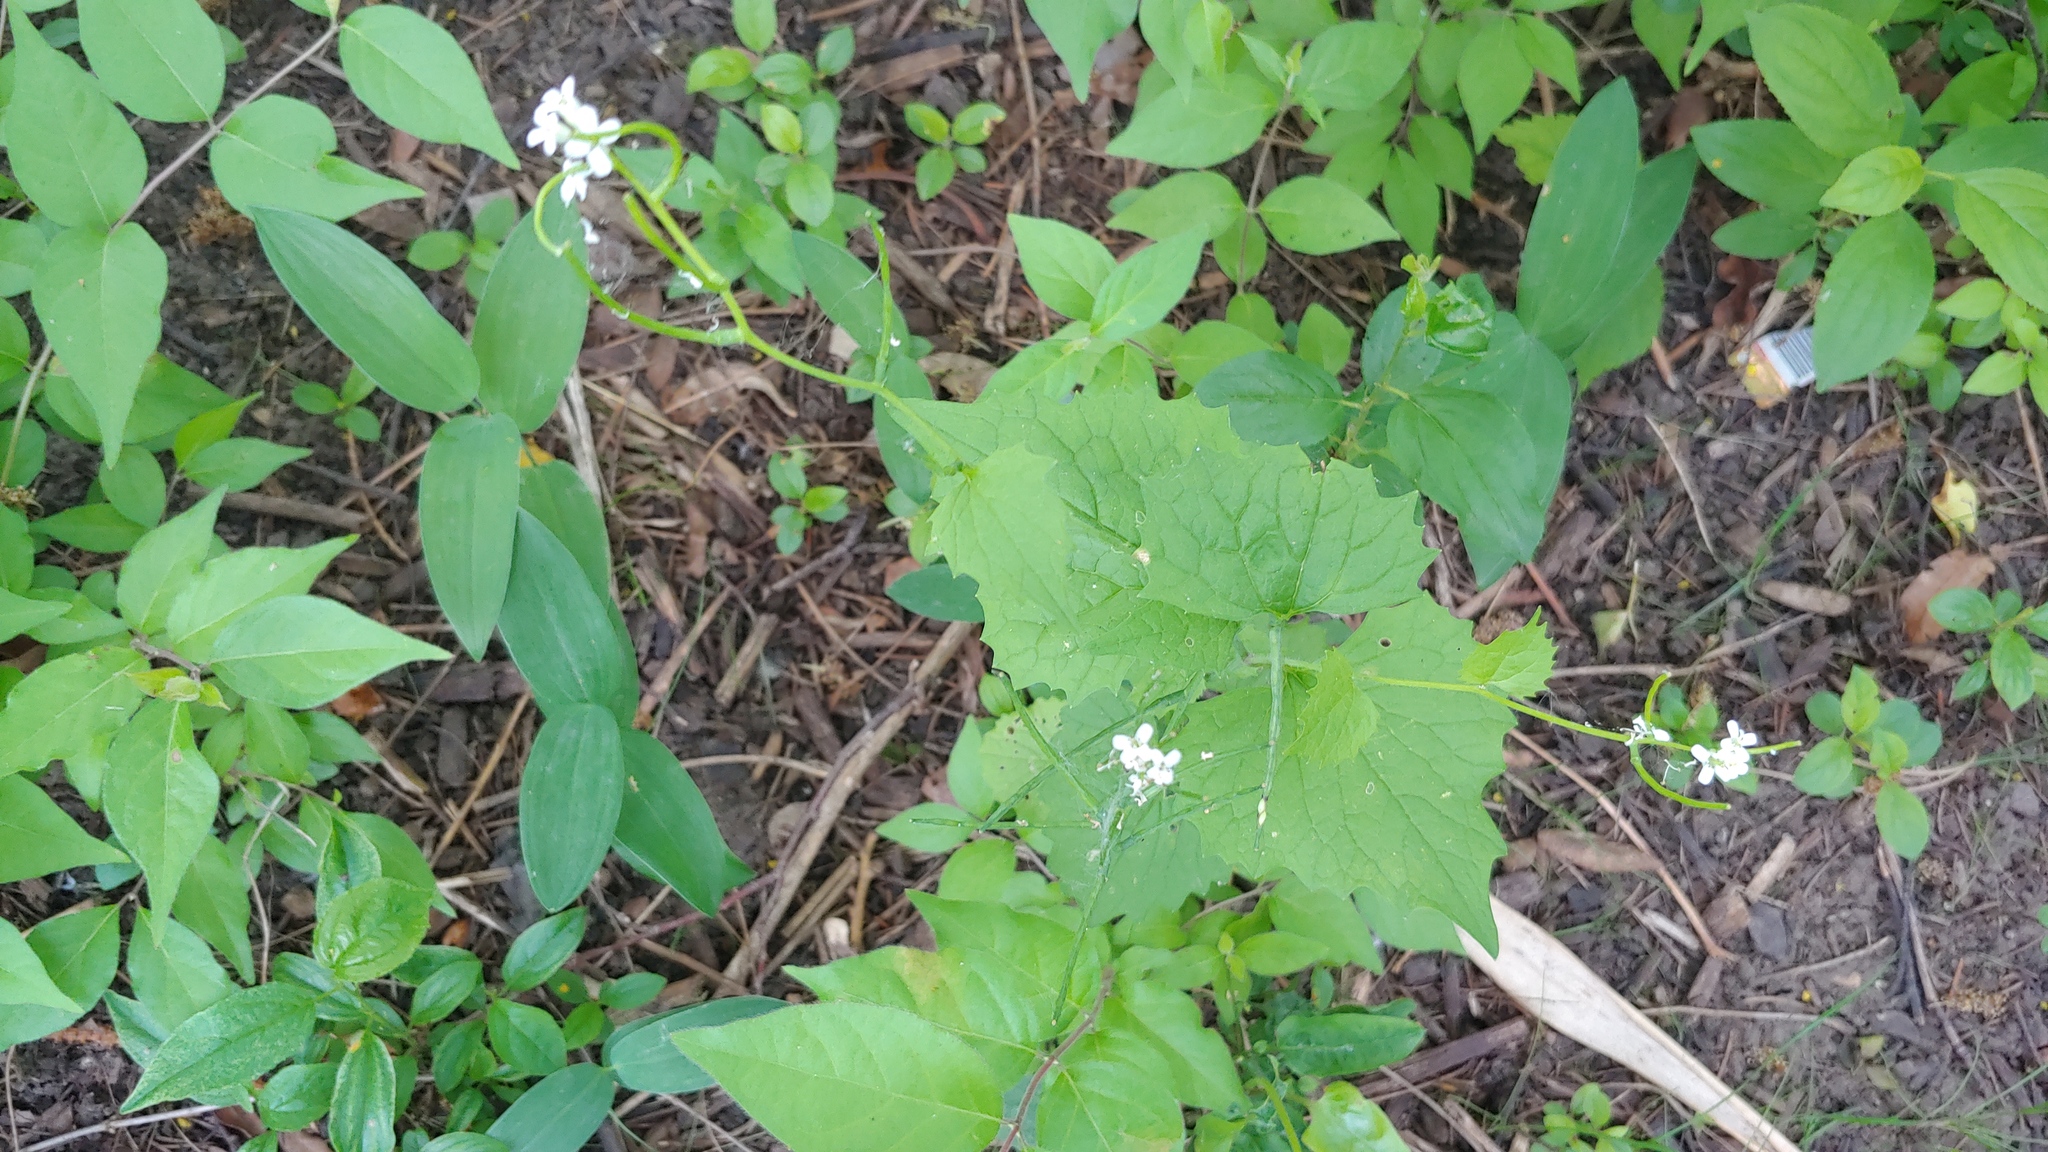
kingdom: Plantae
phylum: Tracheophyta
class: Magnoliopsida
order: Brassicales
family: Brassicaceae
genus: Alliaria
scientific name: Alliaria petiolata
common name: Garlic mustard
